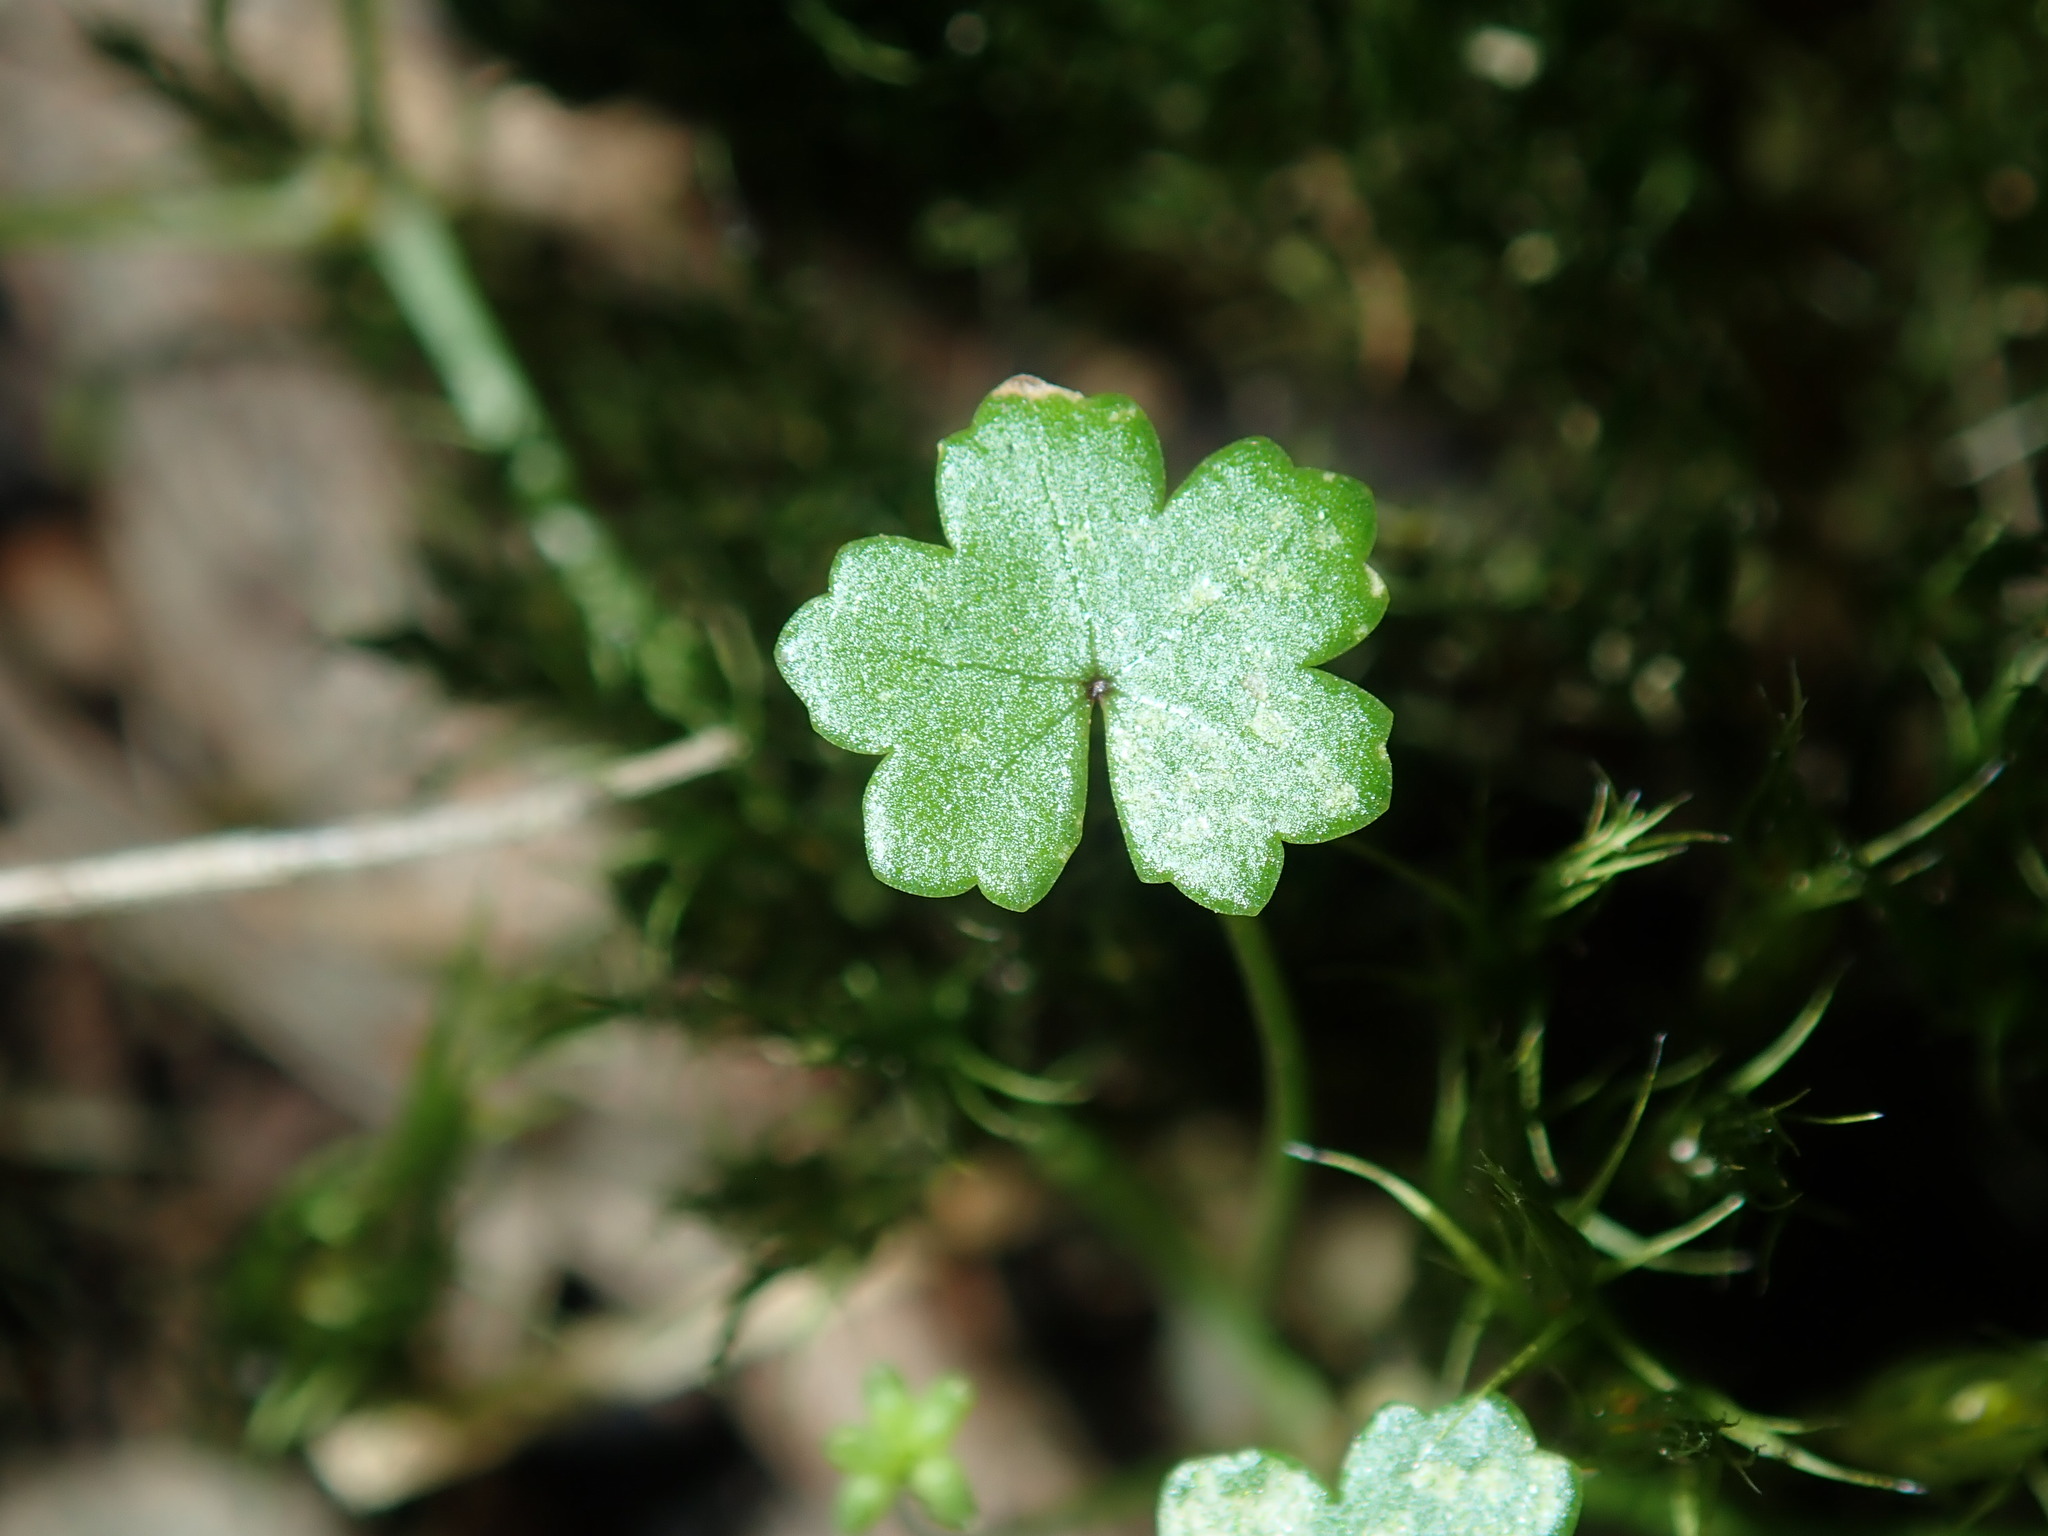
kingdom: Plantae
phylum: Tracheophyta
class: Magnoliopsida
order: Apiales
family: Araliaceae
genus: Hydrocotyle
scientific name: Hydrocotyle sibthorpioides
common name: Lawn marshpennywort
